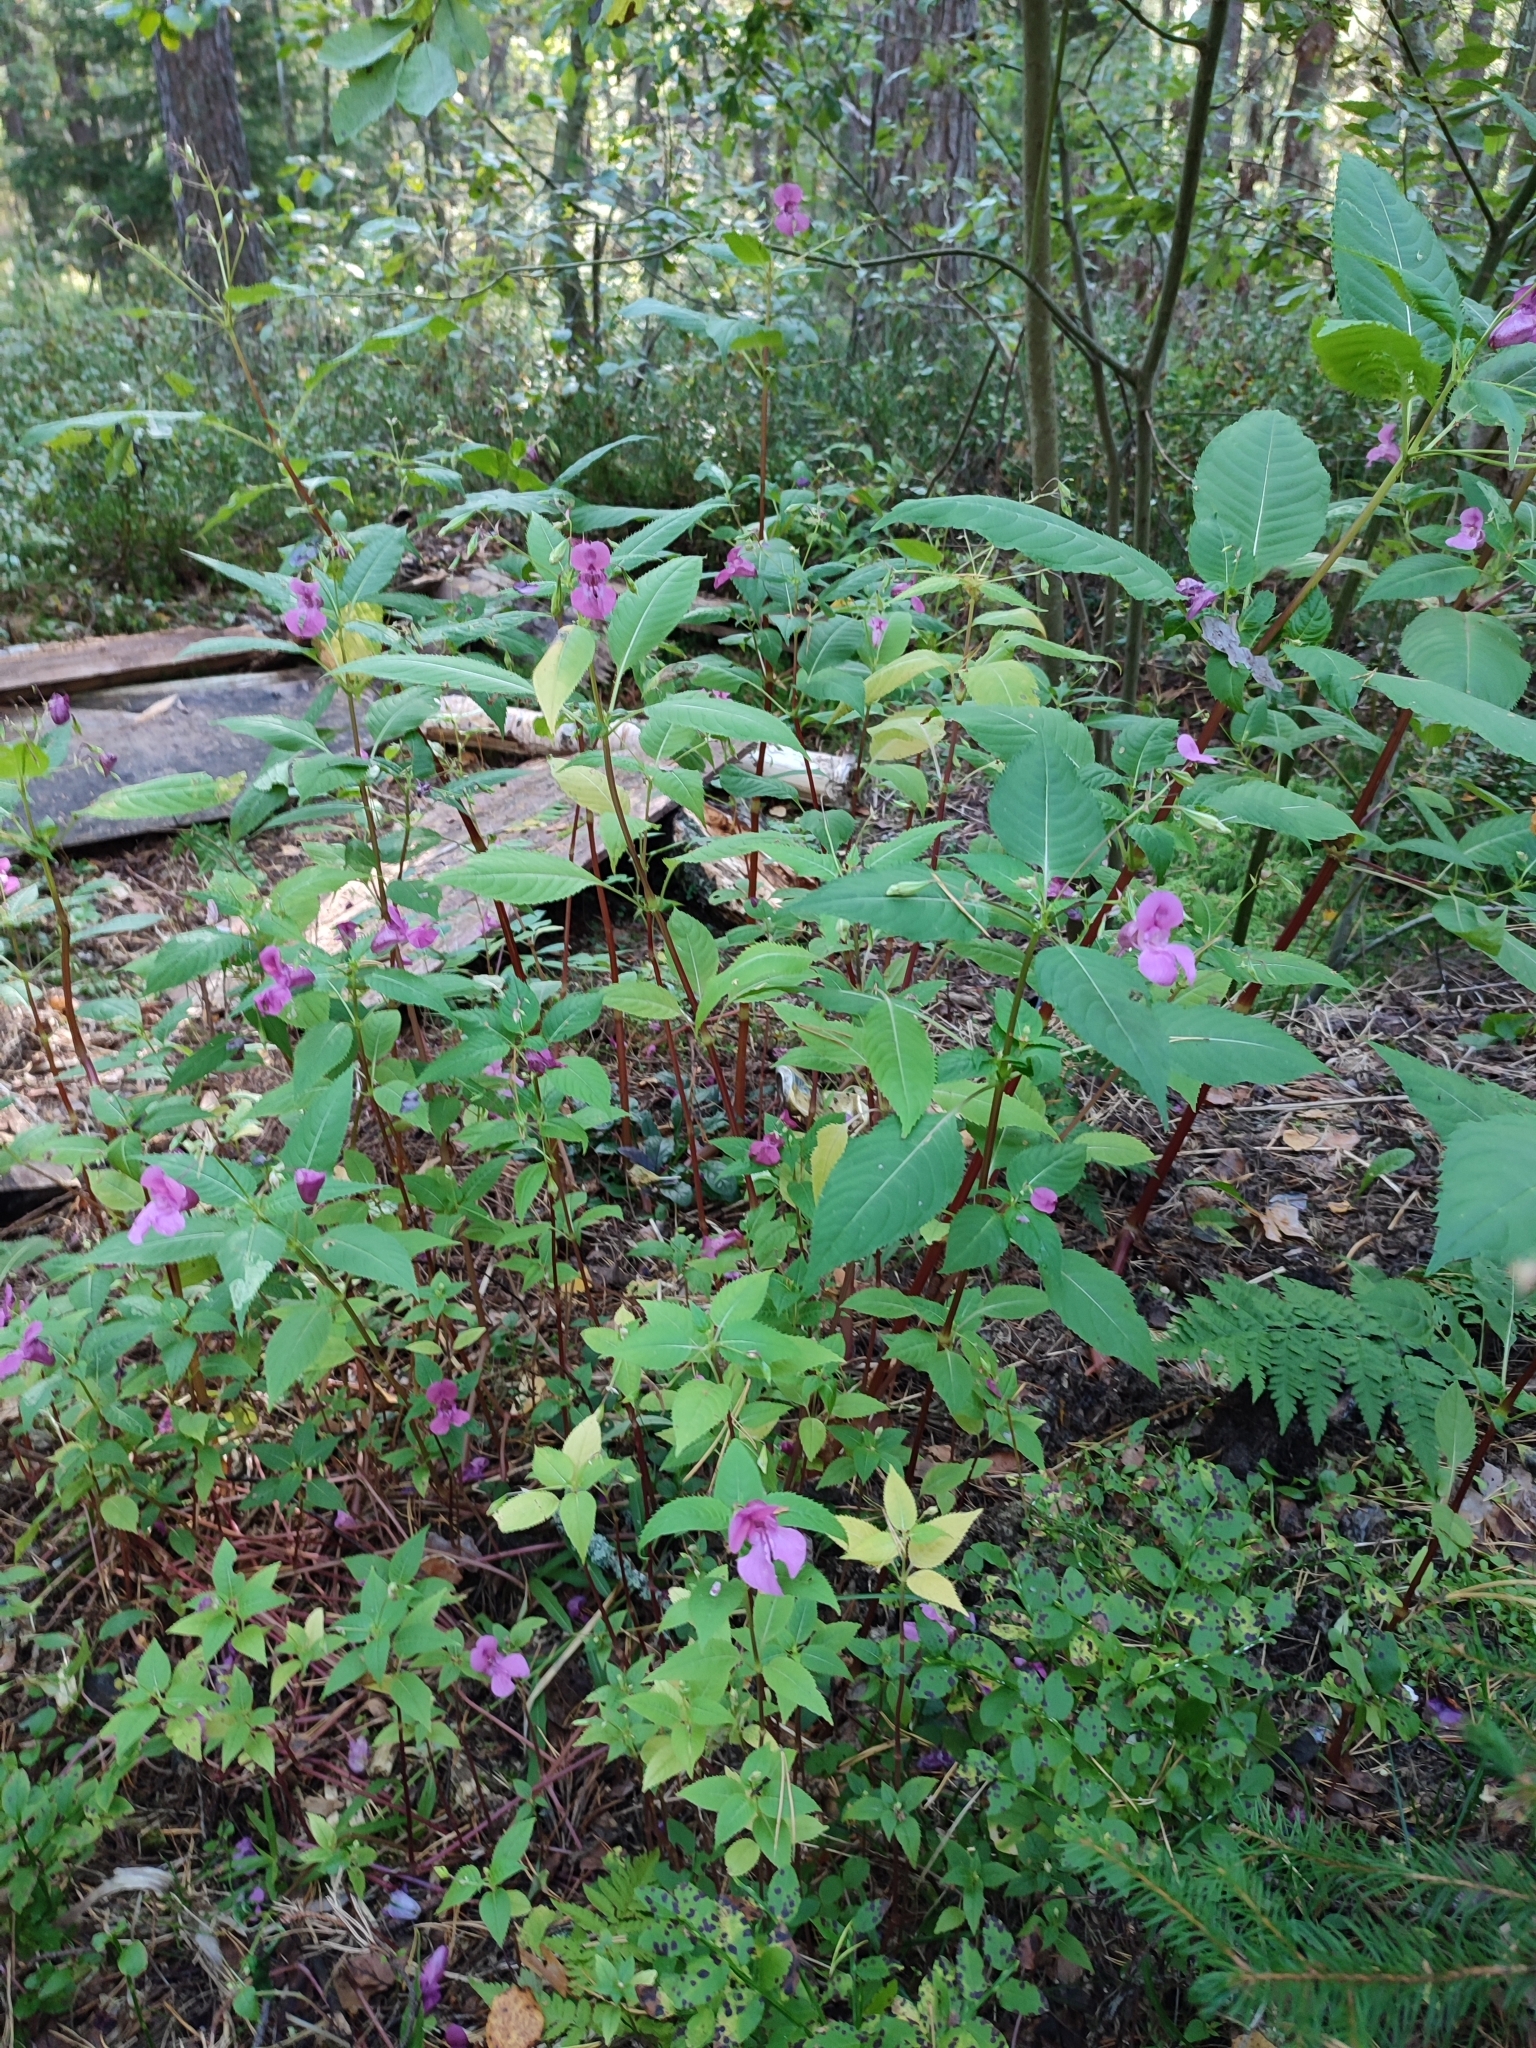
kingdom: Plantae
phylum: Tracheophyta
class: Magnoliopsida
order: Ericales
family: Balsaminaceae
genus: Impatiens
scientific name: Impatiens glandulifera
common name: Himalayan balsam
